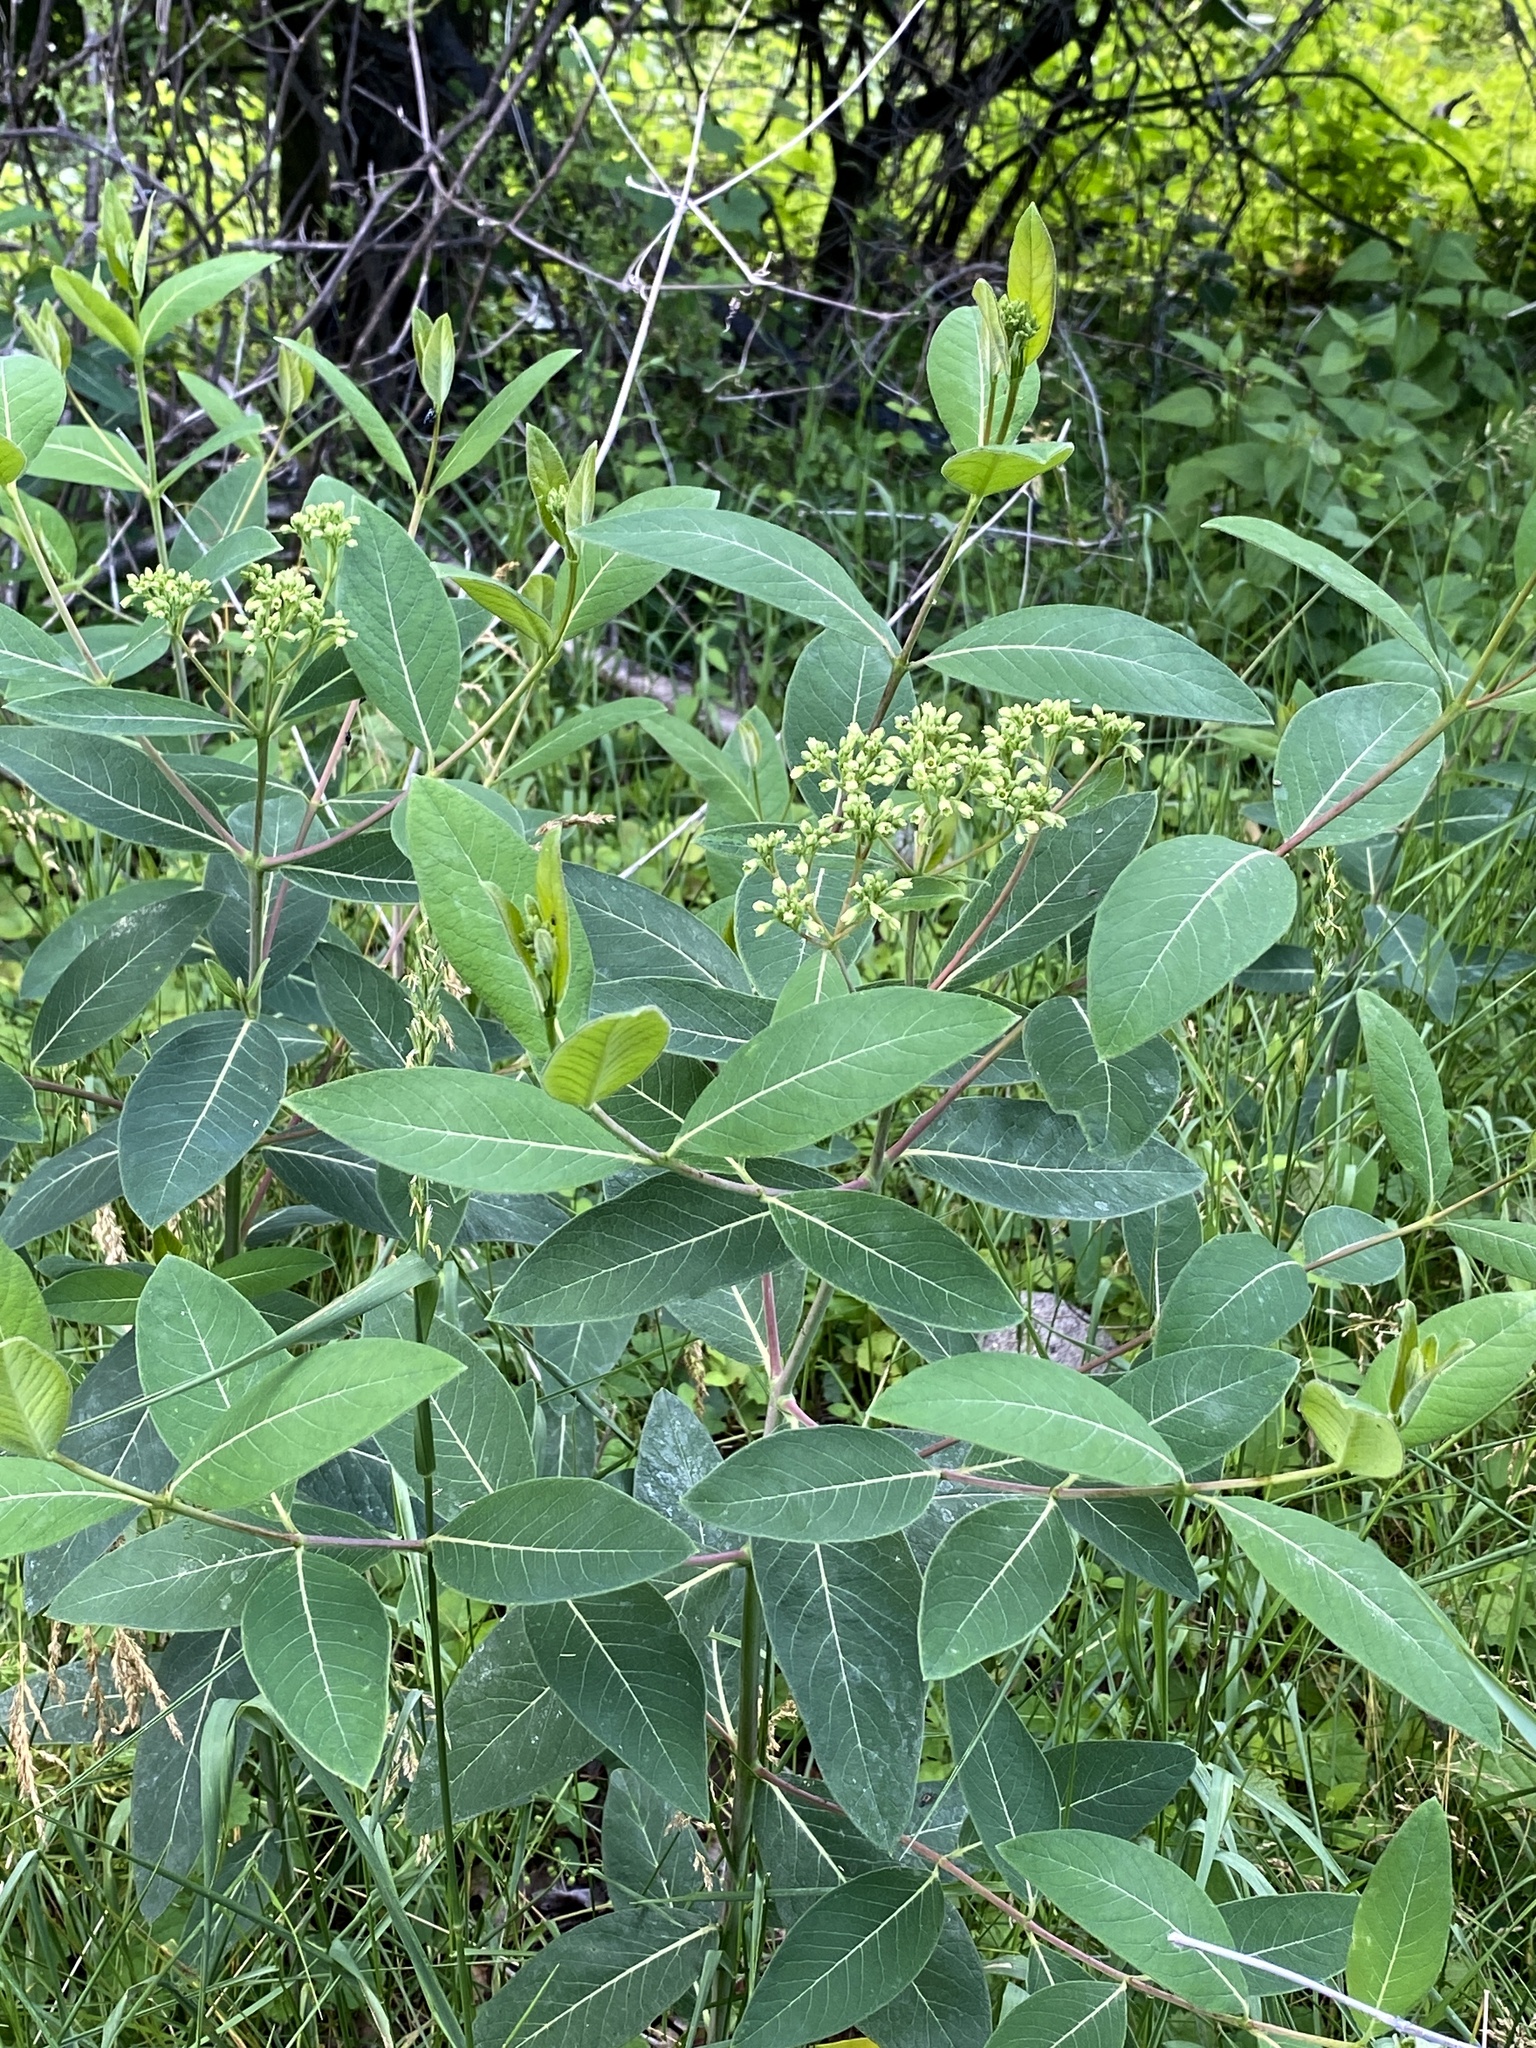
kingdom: Plantae
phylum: Tracheophyta
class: Magnoliopsida
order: Gentianales
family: Apocynaceae
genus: Apocynum
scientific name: Apocynum cannabinum
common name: Hemp dogbane
